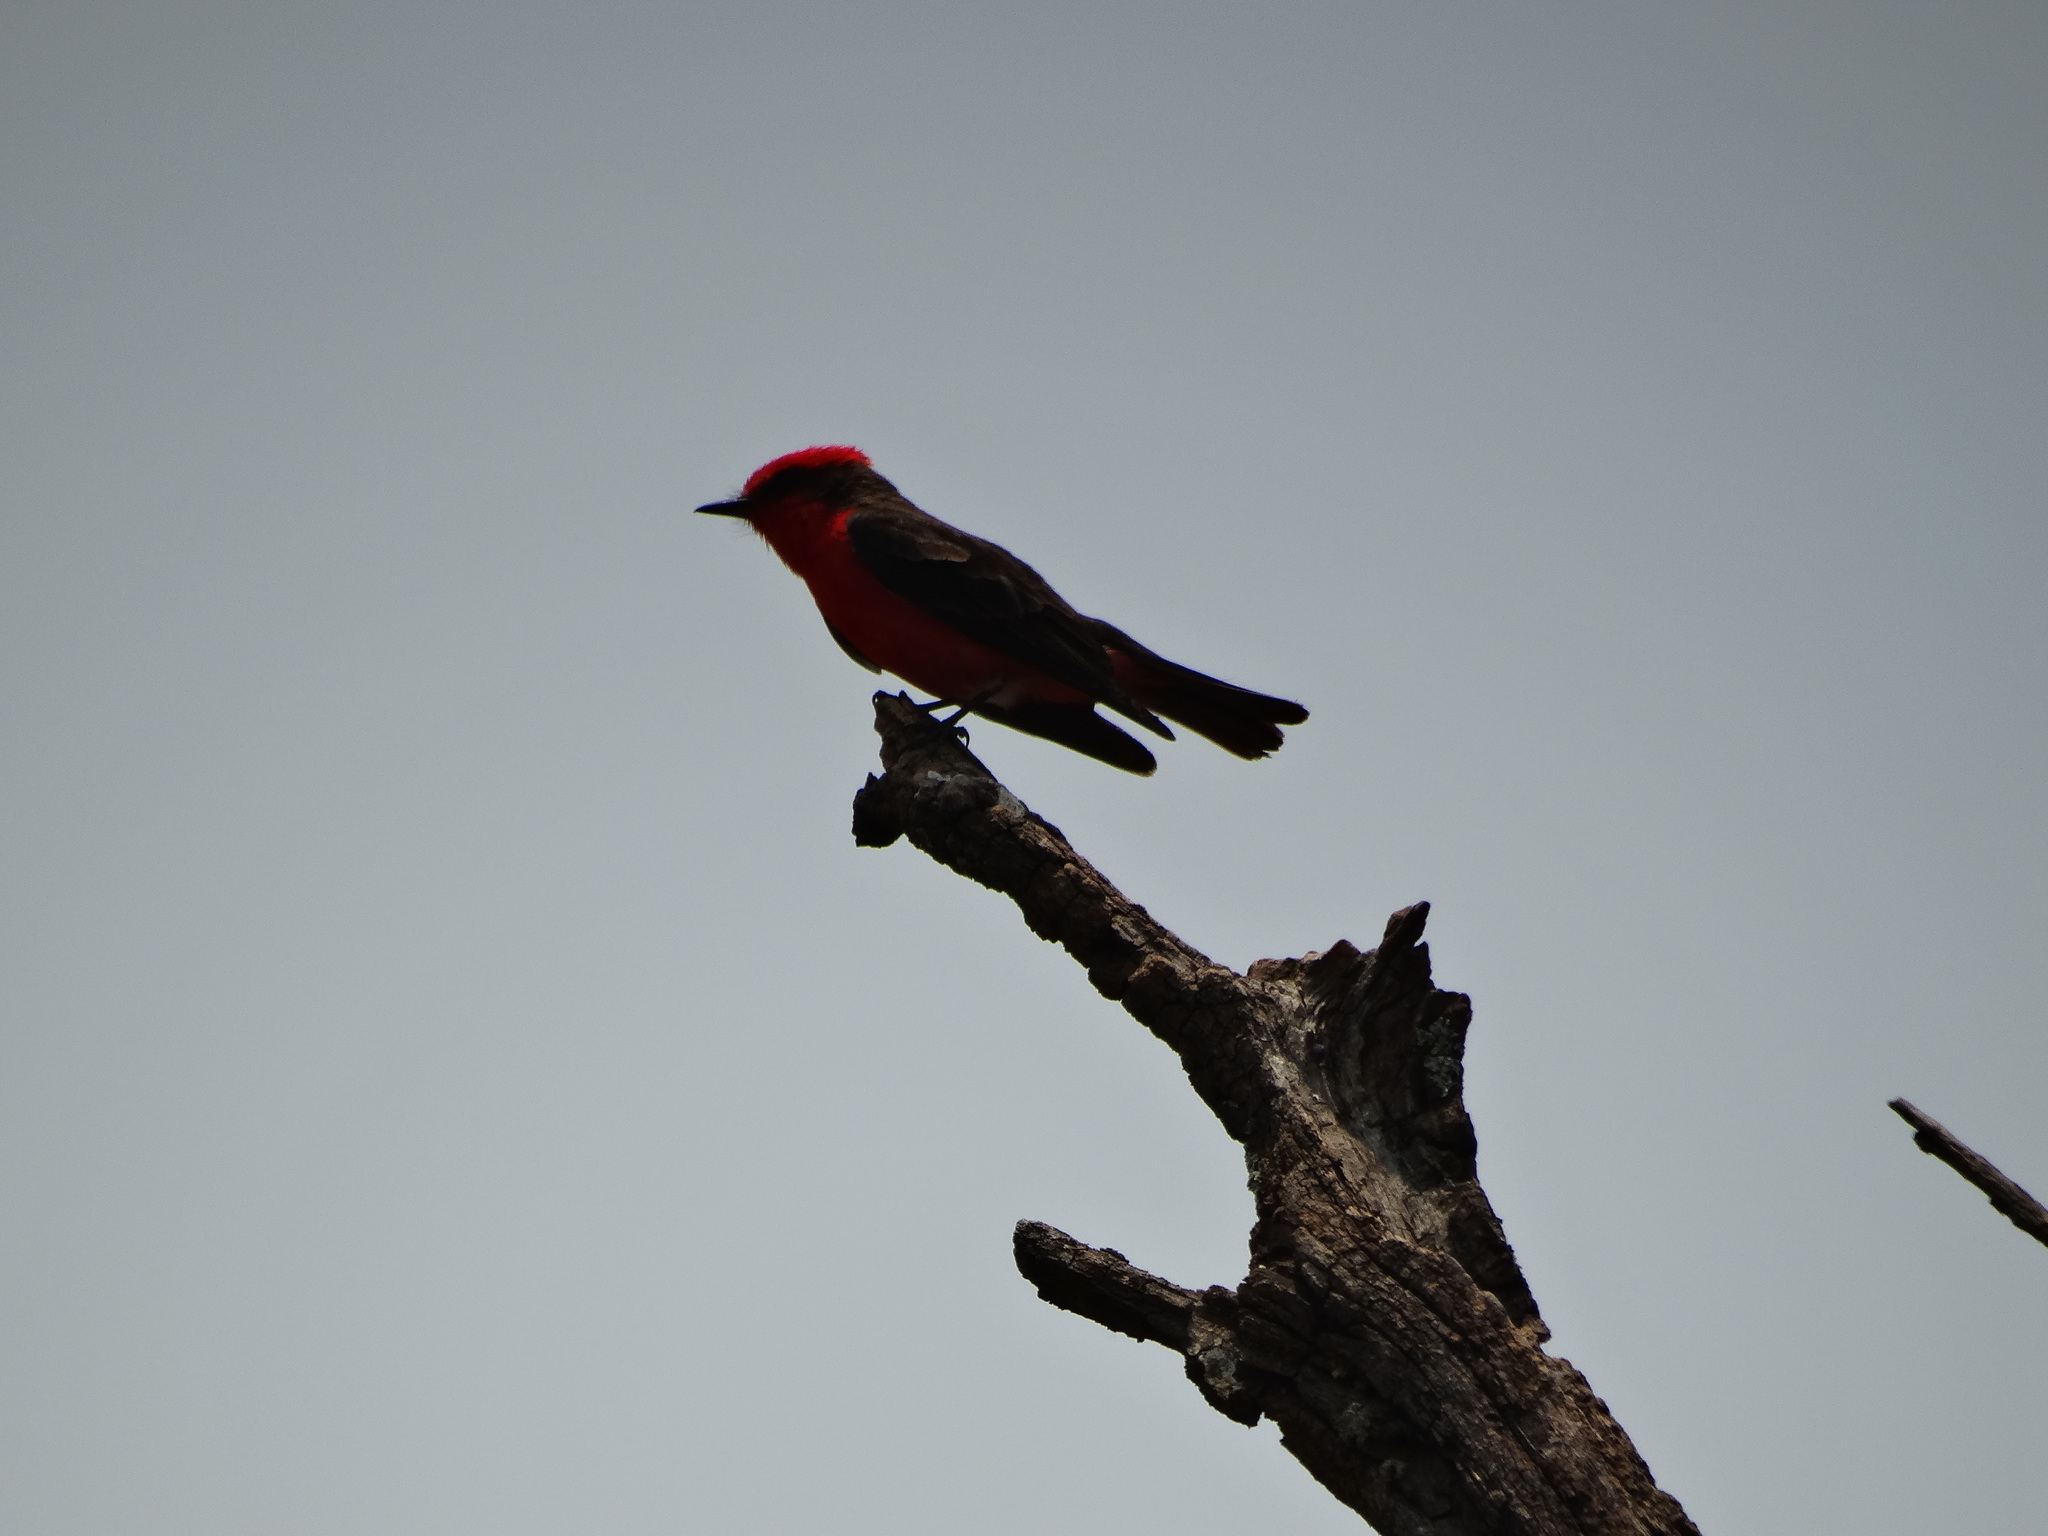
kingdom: Animalia
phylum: Chordata
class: Aves
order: Passeriformes
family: Tyrannidae
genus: Pyrocephalus
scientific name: Pyrocephalus rubinus
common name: Vermilion flycatcher
